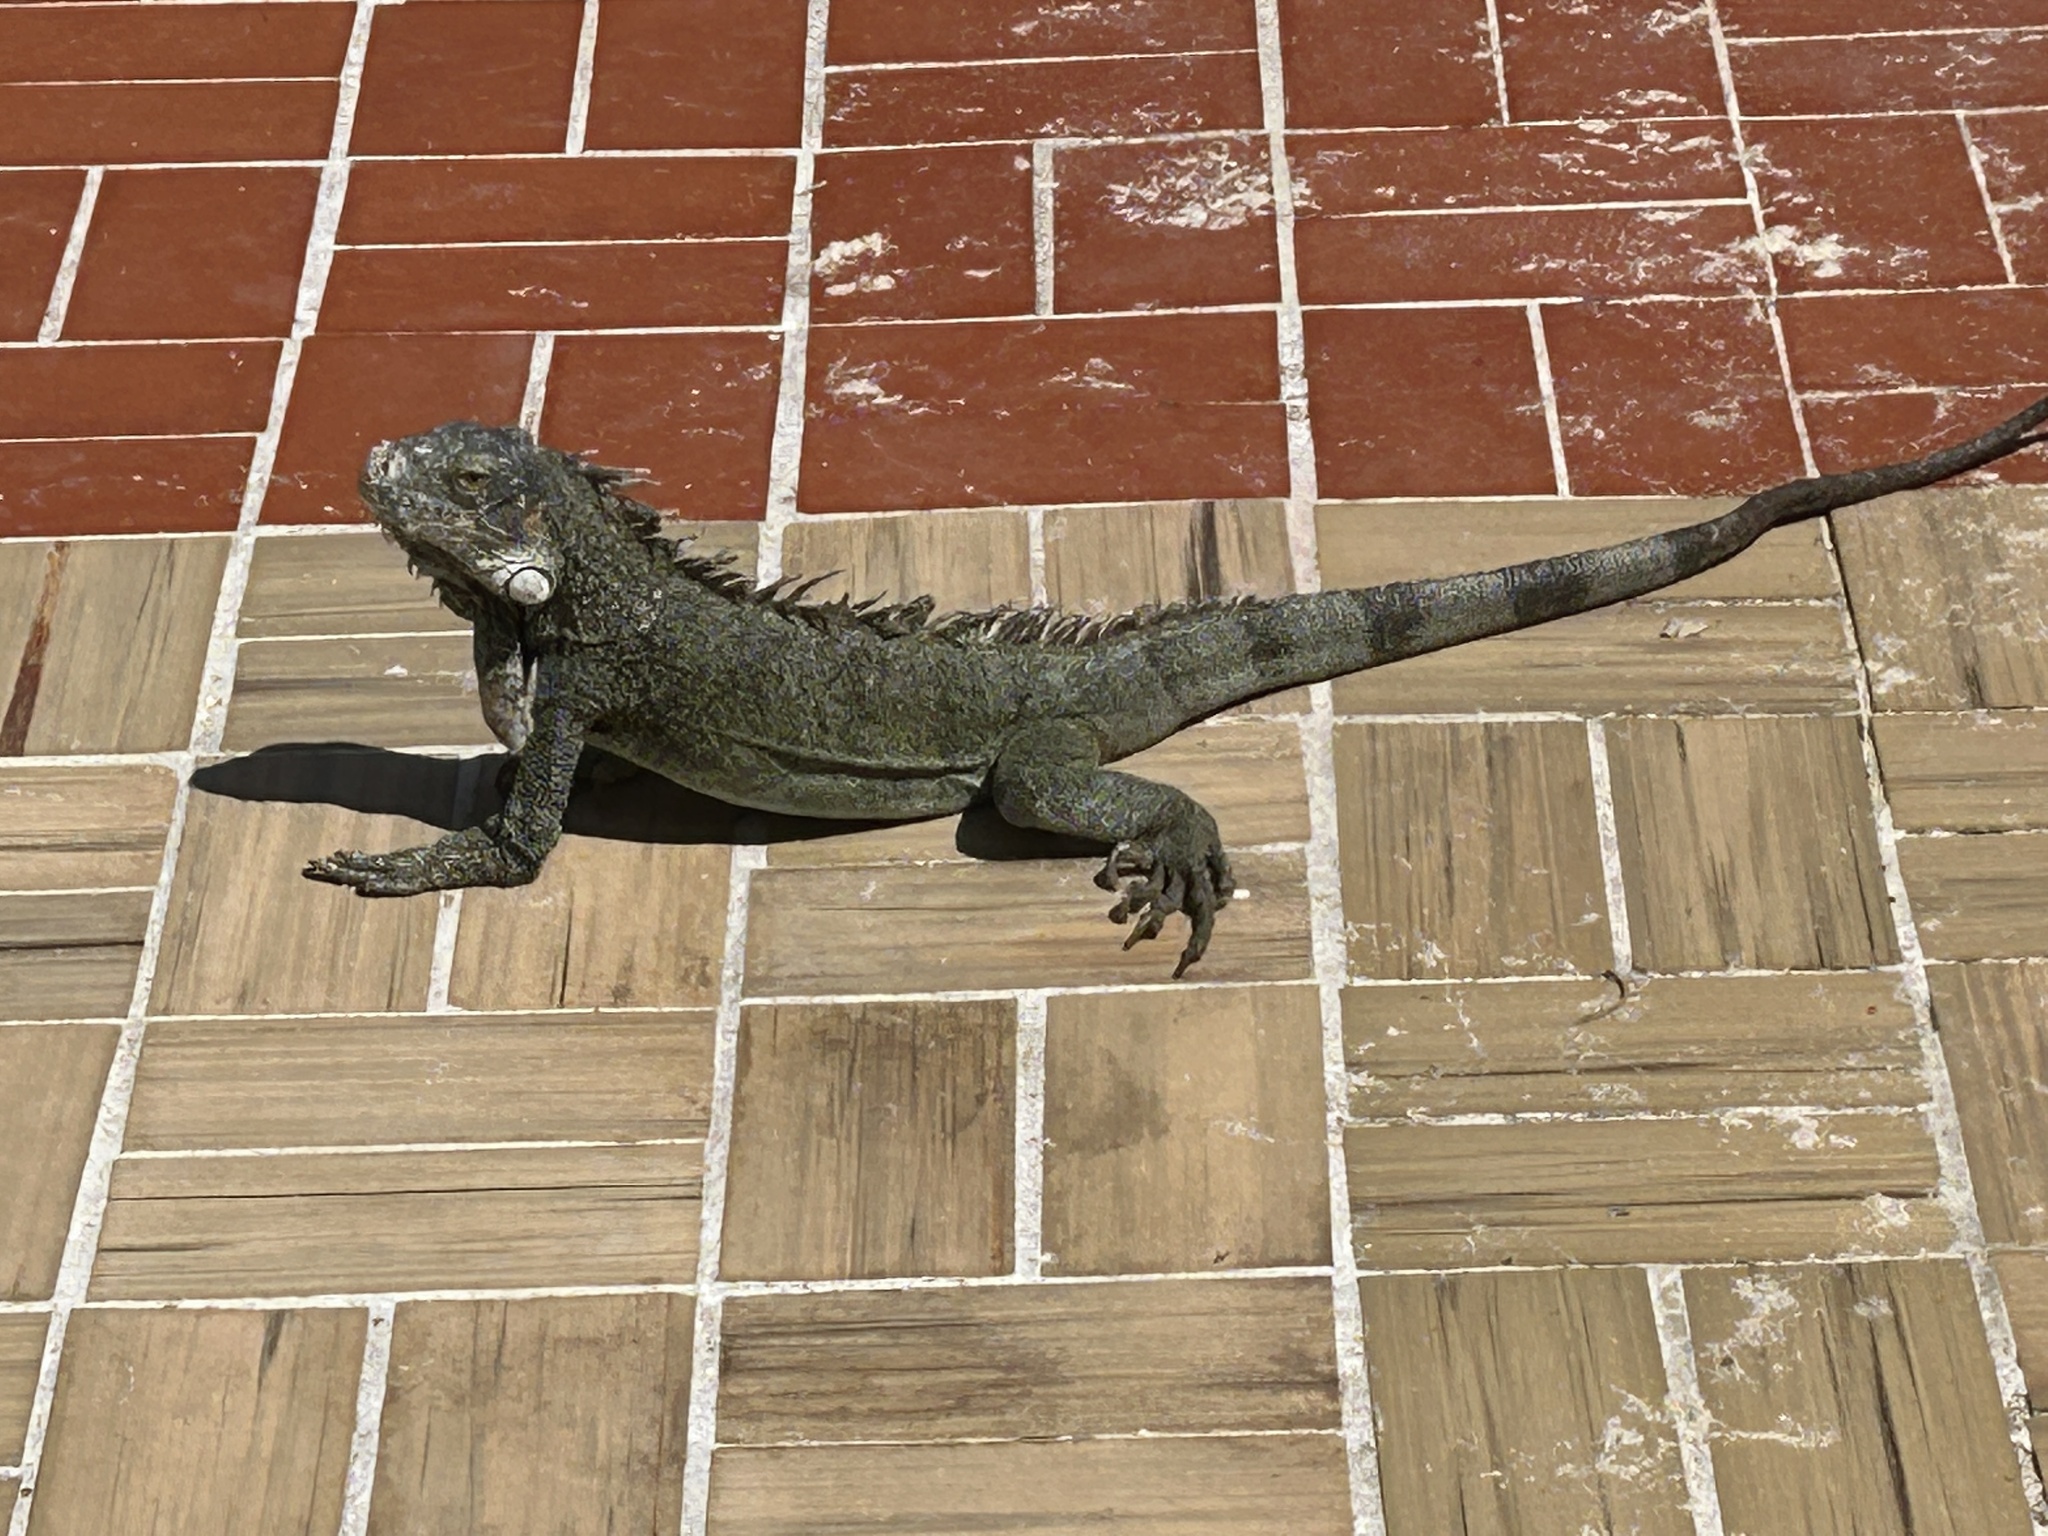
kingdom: Animalia
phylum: Chordata
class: Squamata
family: Iguanidae
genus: Iguana
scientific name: Iguana iguana
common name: Green iguana
